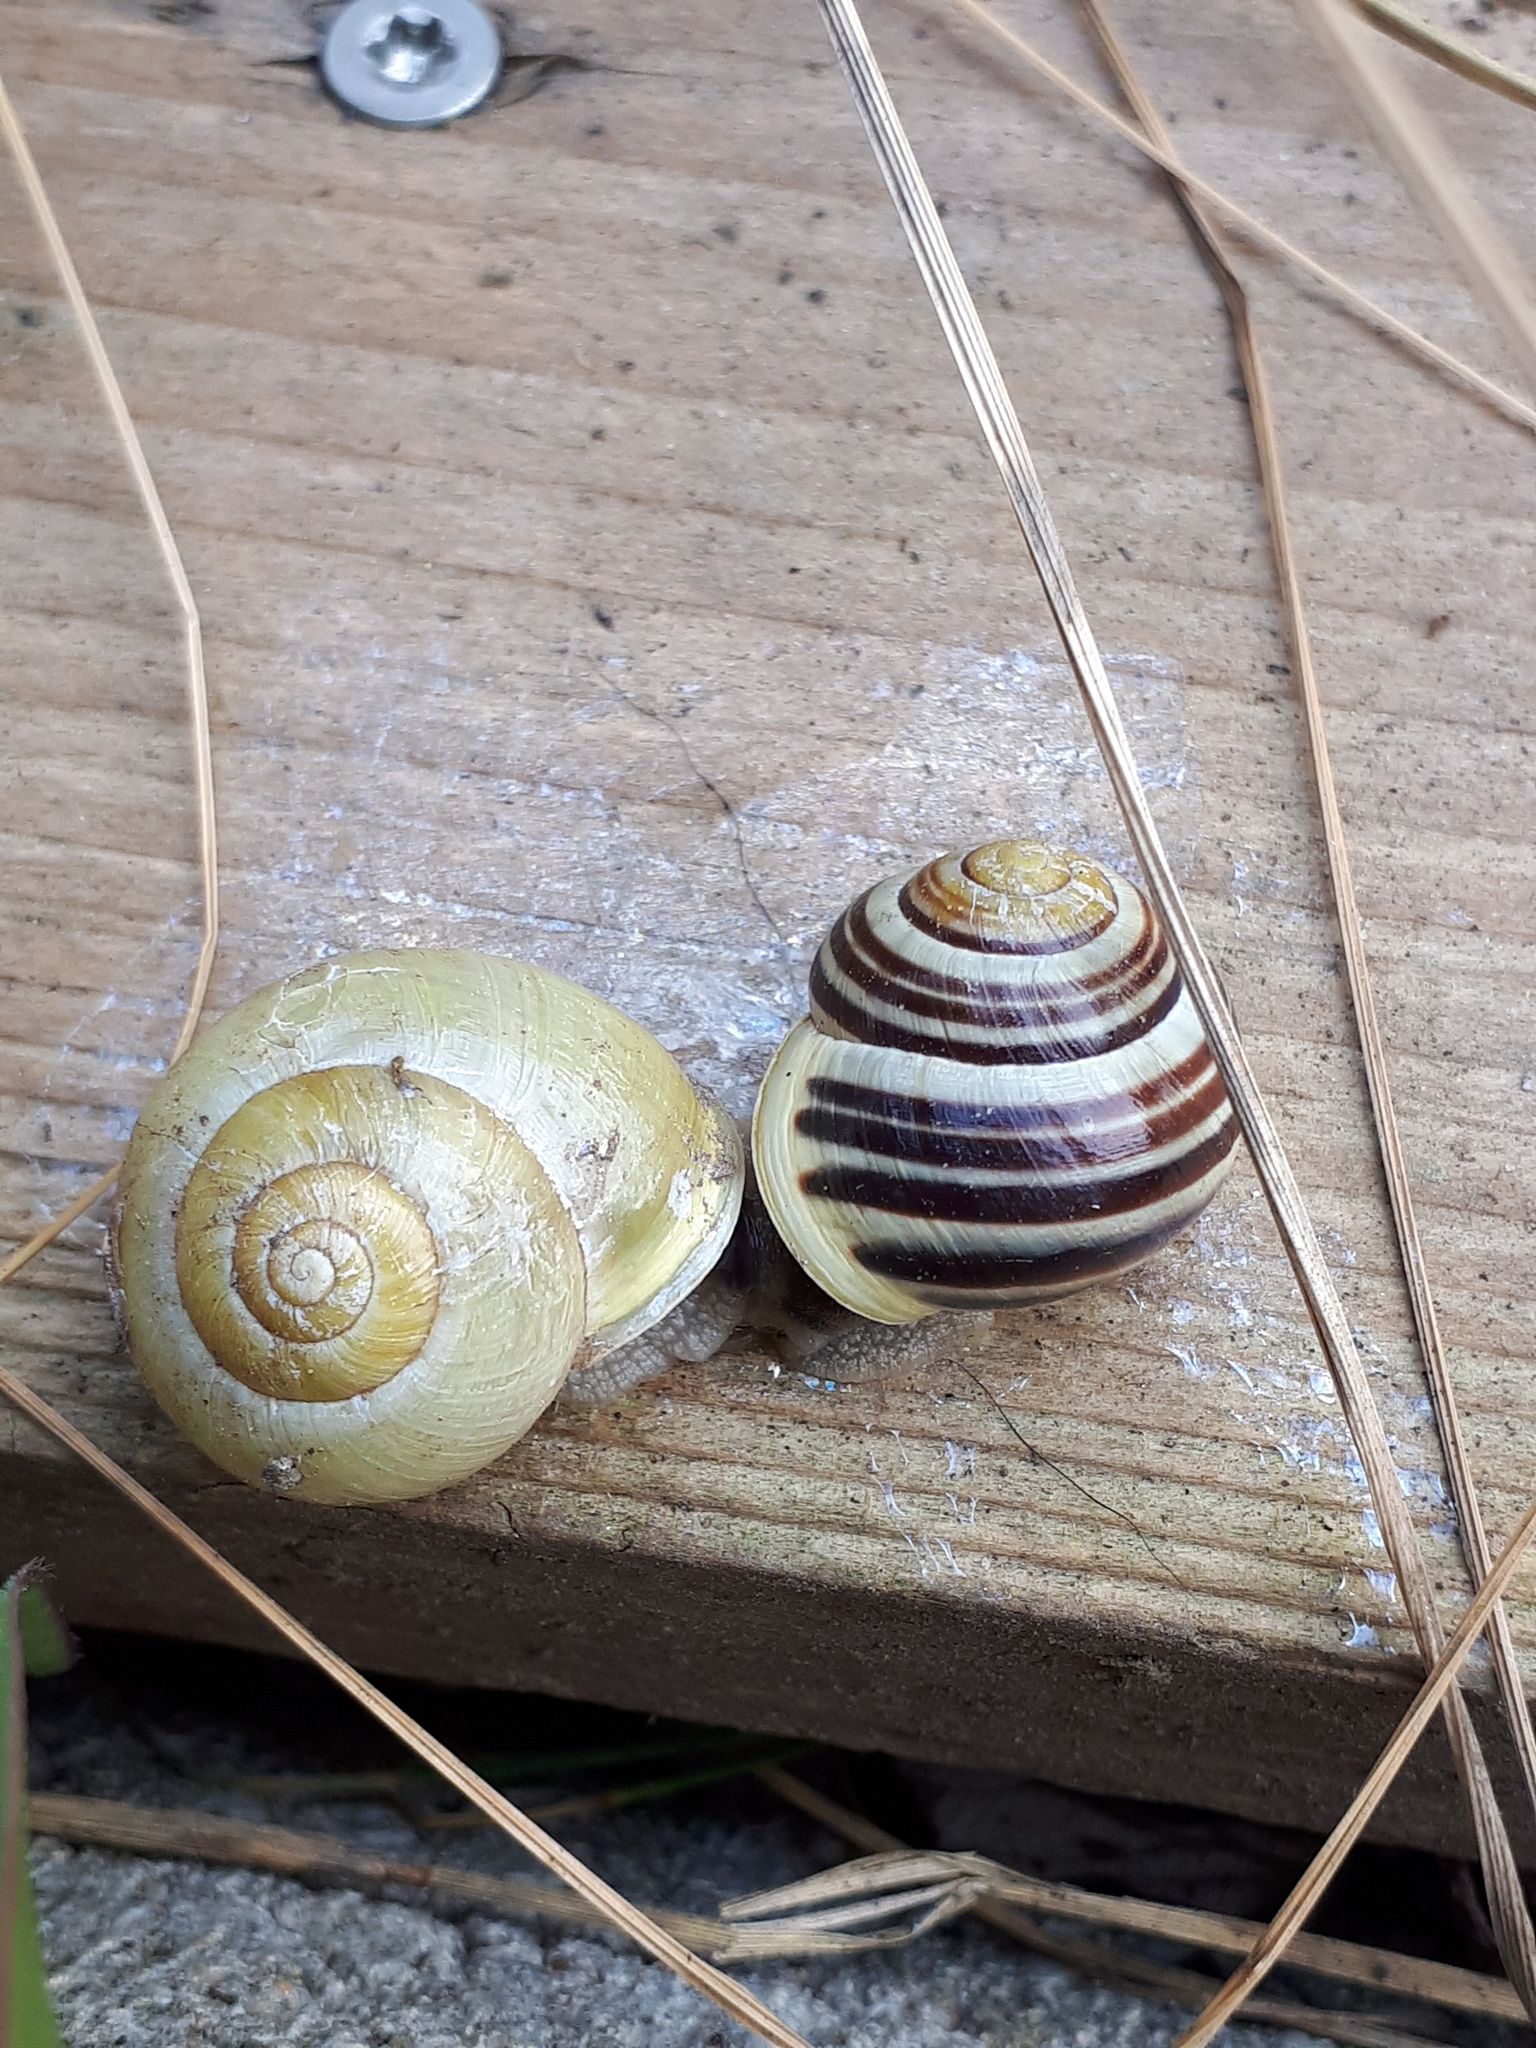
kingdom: Animalia
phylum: Mollusca
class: Gastropoda
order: Stylommatophora
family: Helicidae
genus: Cepaea
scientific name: Cepaea hortensis
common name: White-lip gardensnail
